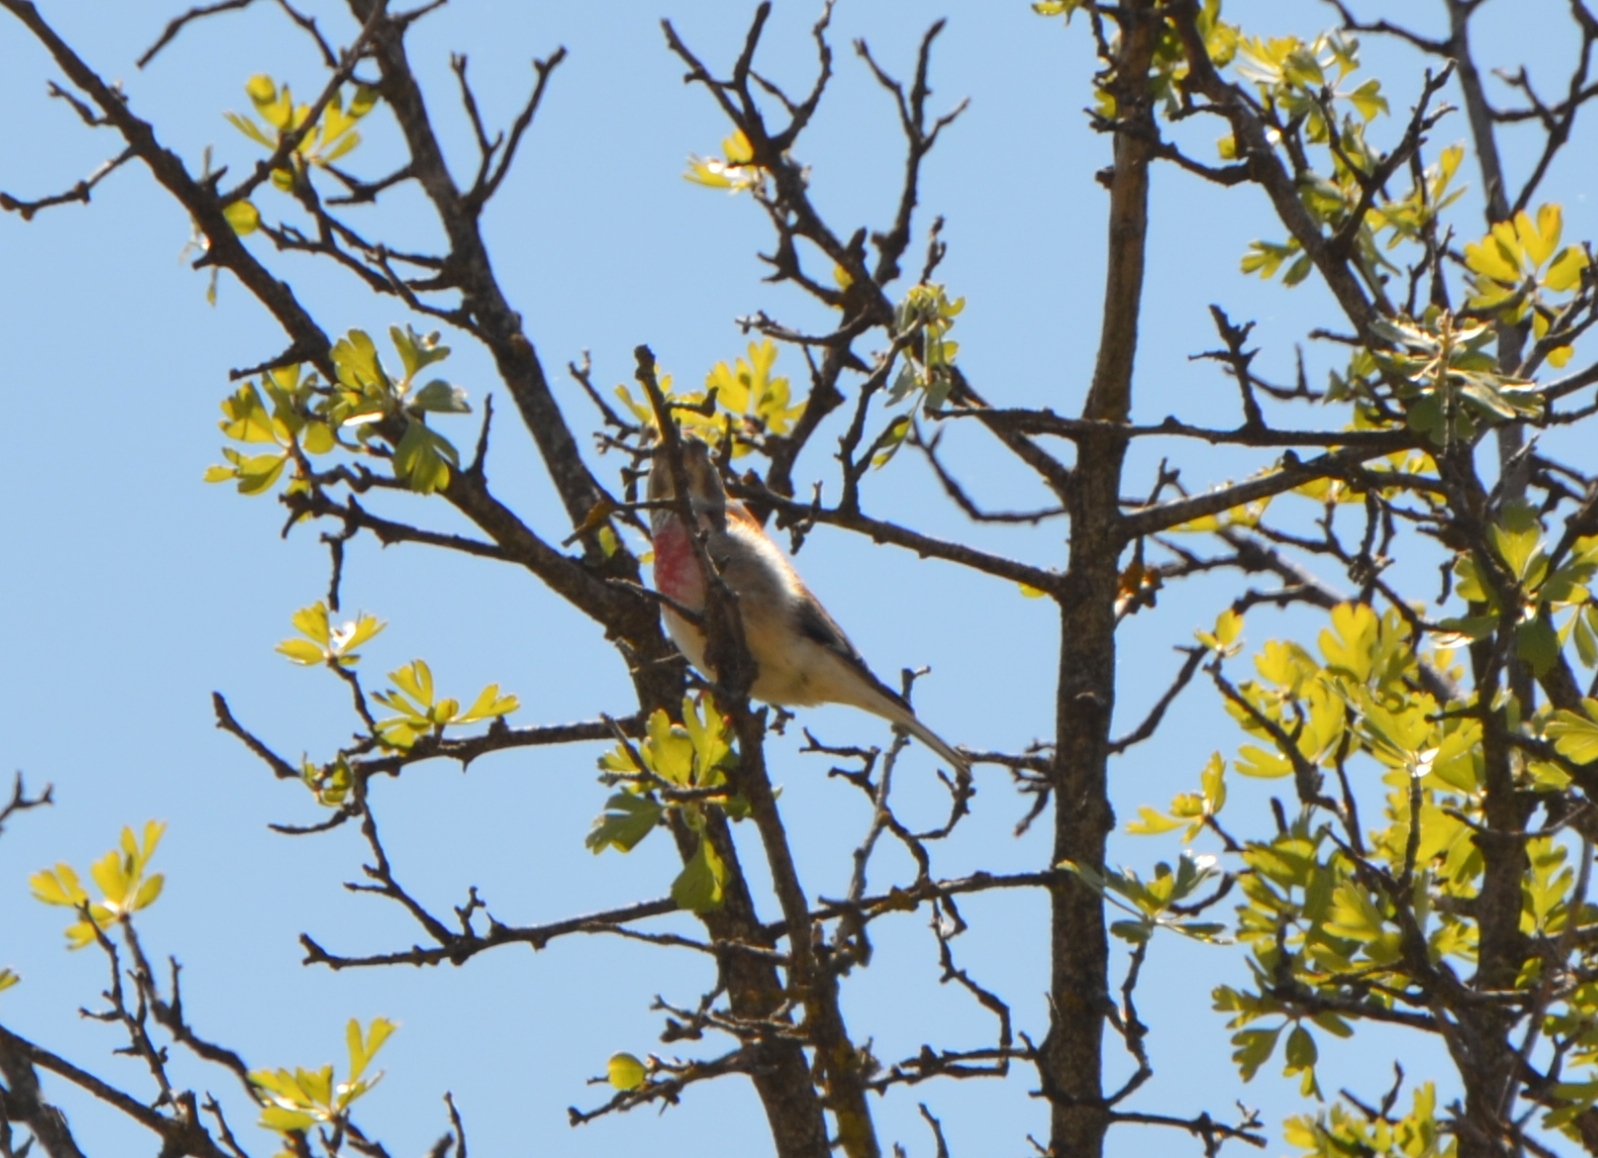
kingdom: Animalia
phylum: Chordata
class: Aves
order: Passeriformes
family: Fringillidae
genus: Linaria
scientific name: Linaria cannabina
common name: Common linnet
